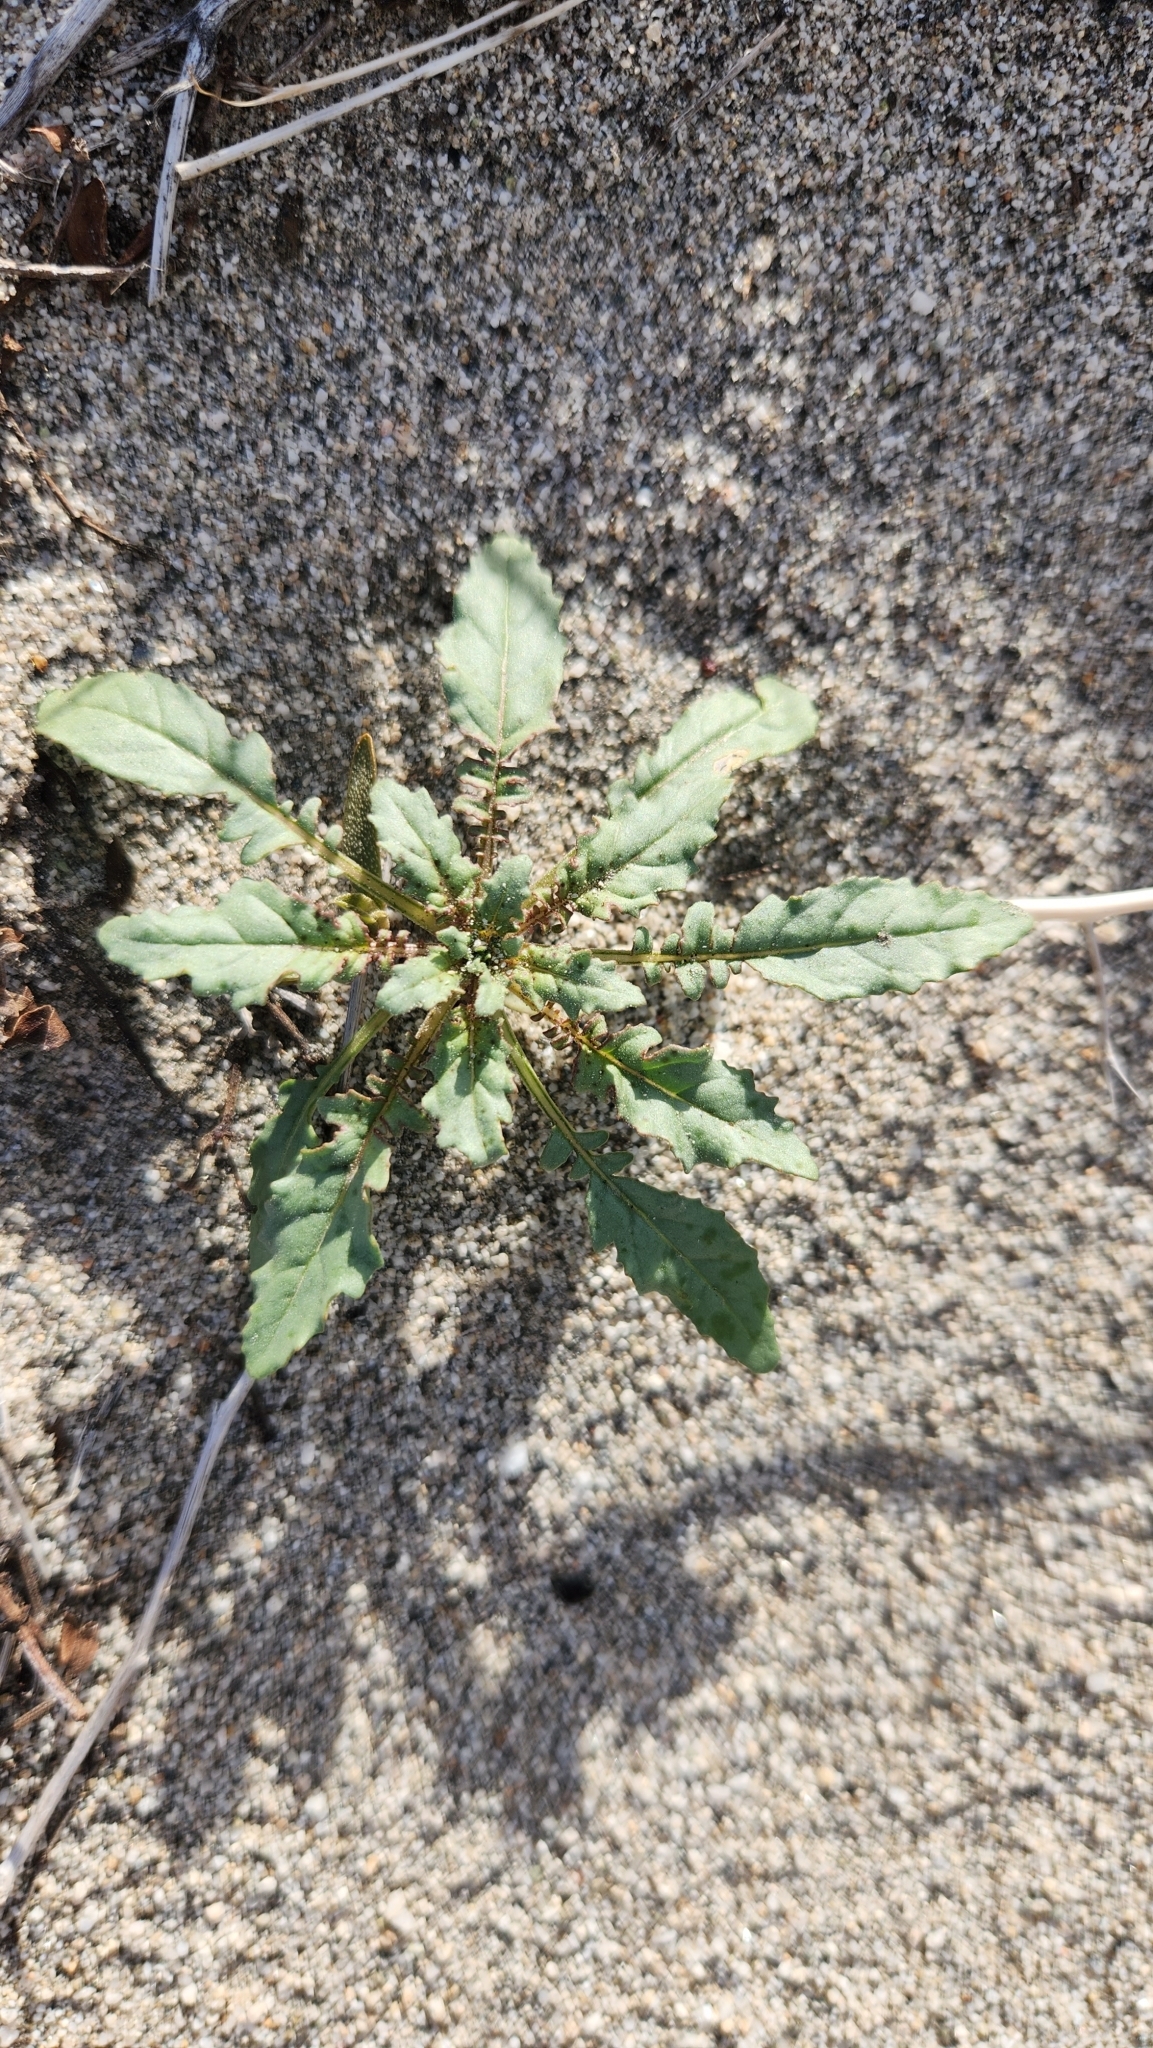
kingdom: Plantae
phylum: Tracheophyta
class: Magnoliopsida
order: Myrtales
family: Onagraceae
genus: Chylismia
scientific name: Chylismia claviformis
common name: Browneyes
